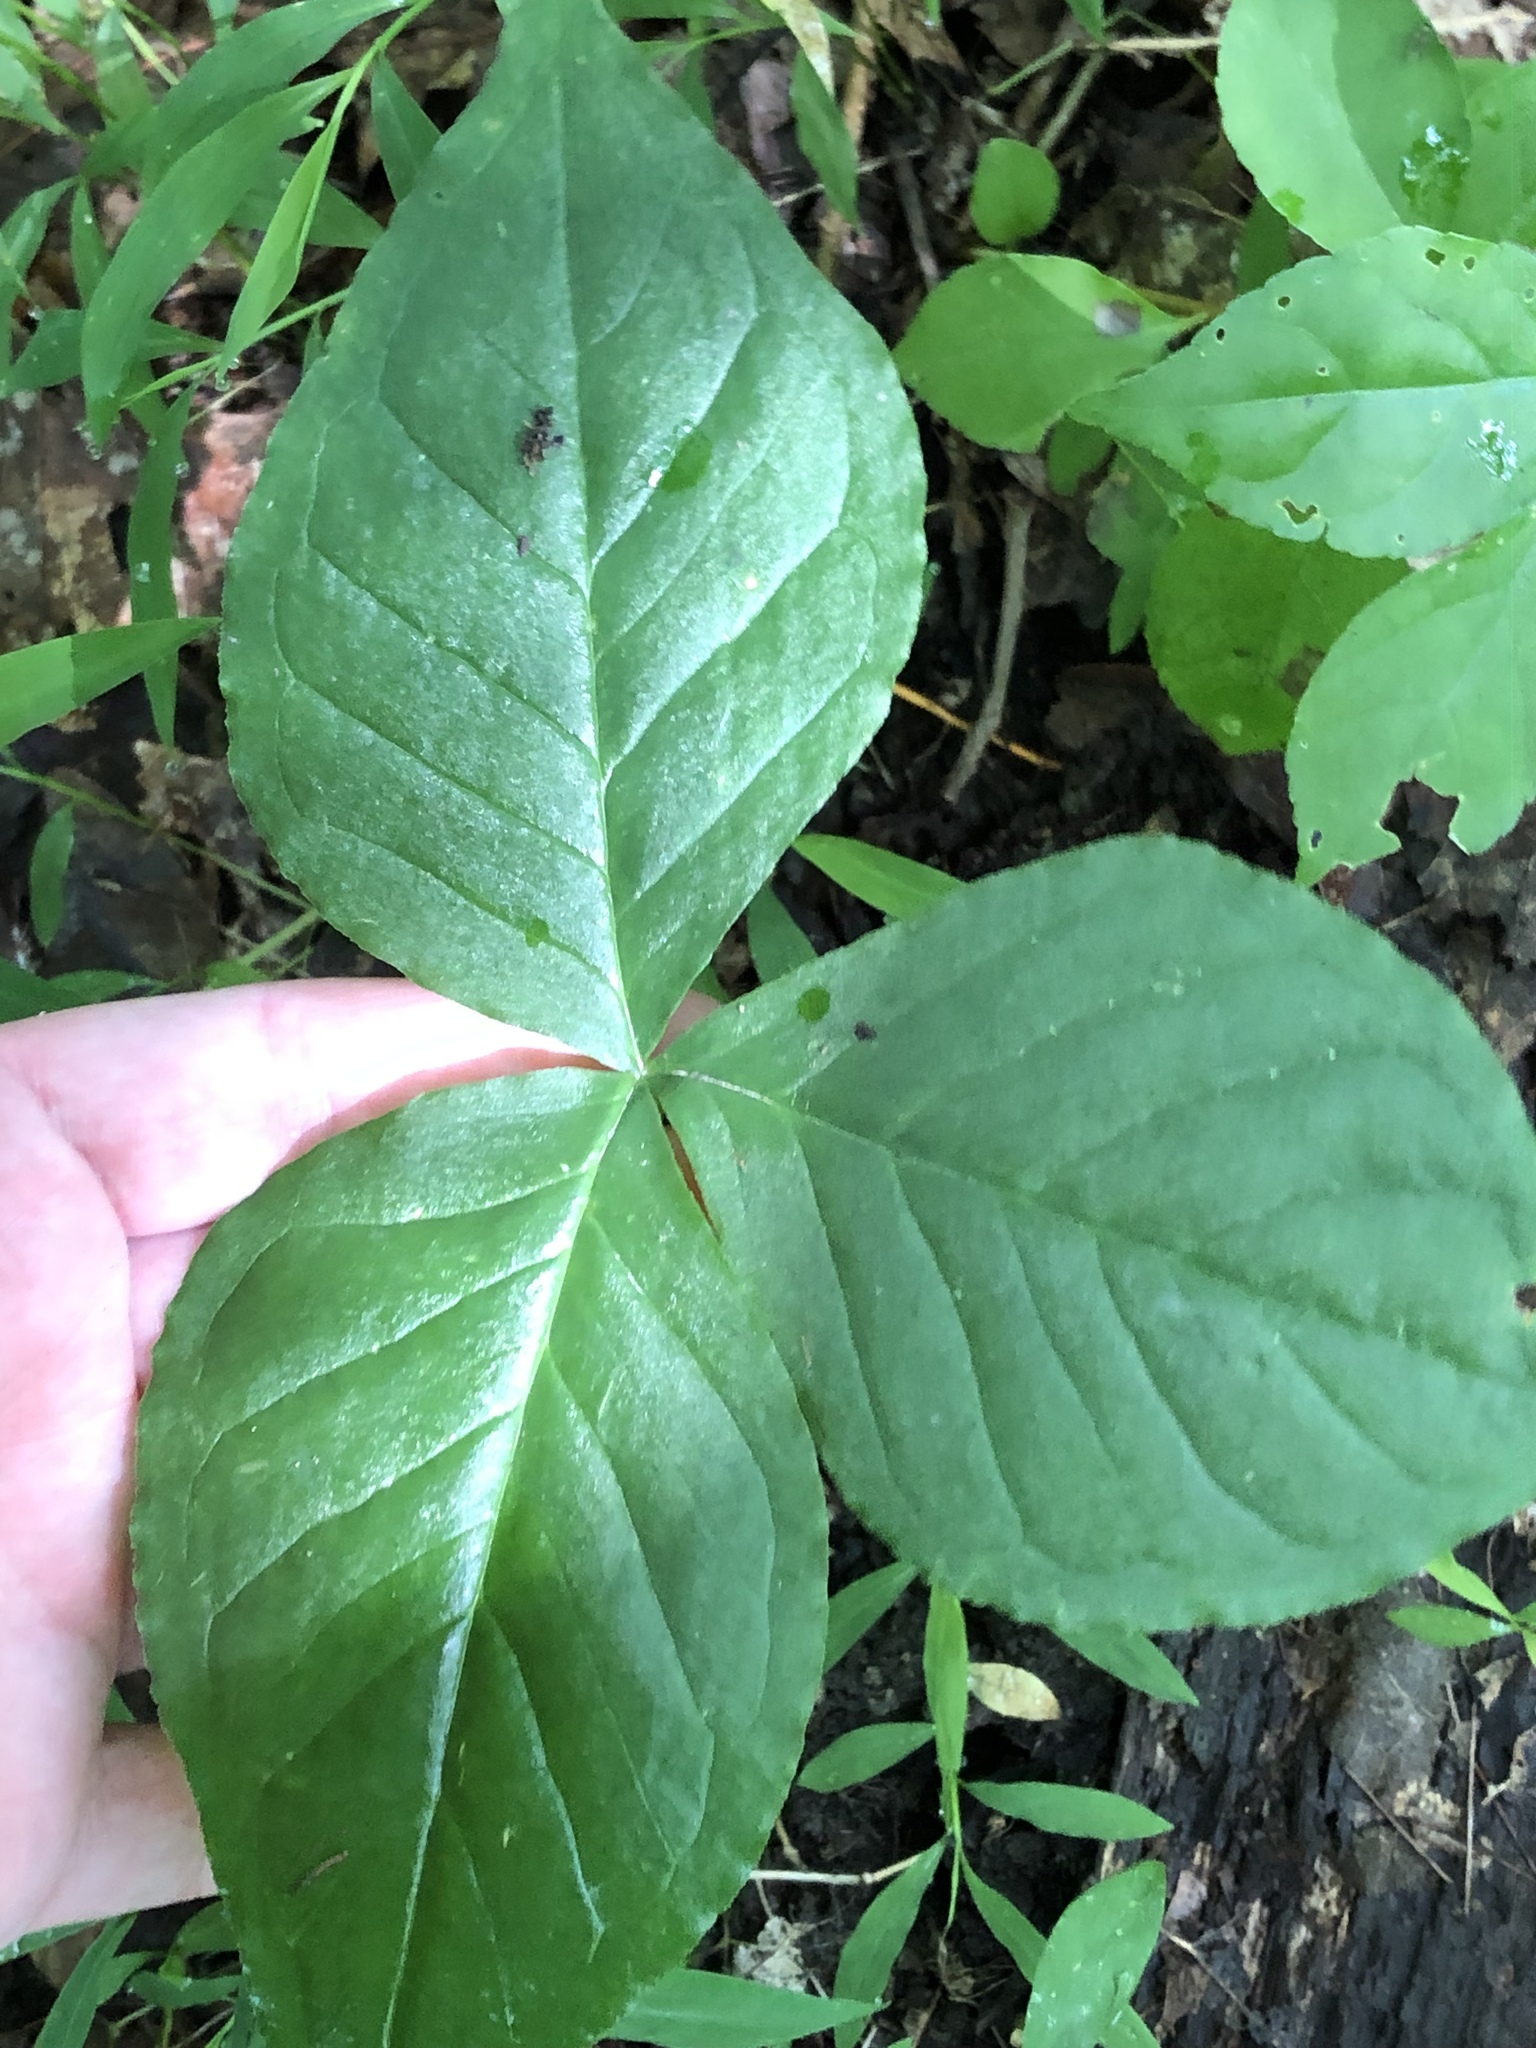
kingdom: Plantae
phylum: Tracheophyta
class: Liliopsida
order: Alismatales
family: Araceae
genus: Arisaema
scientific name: Arisaema triphyllum
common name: Jack-in-the-pulpit
